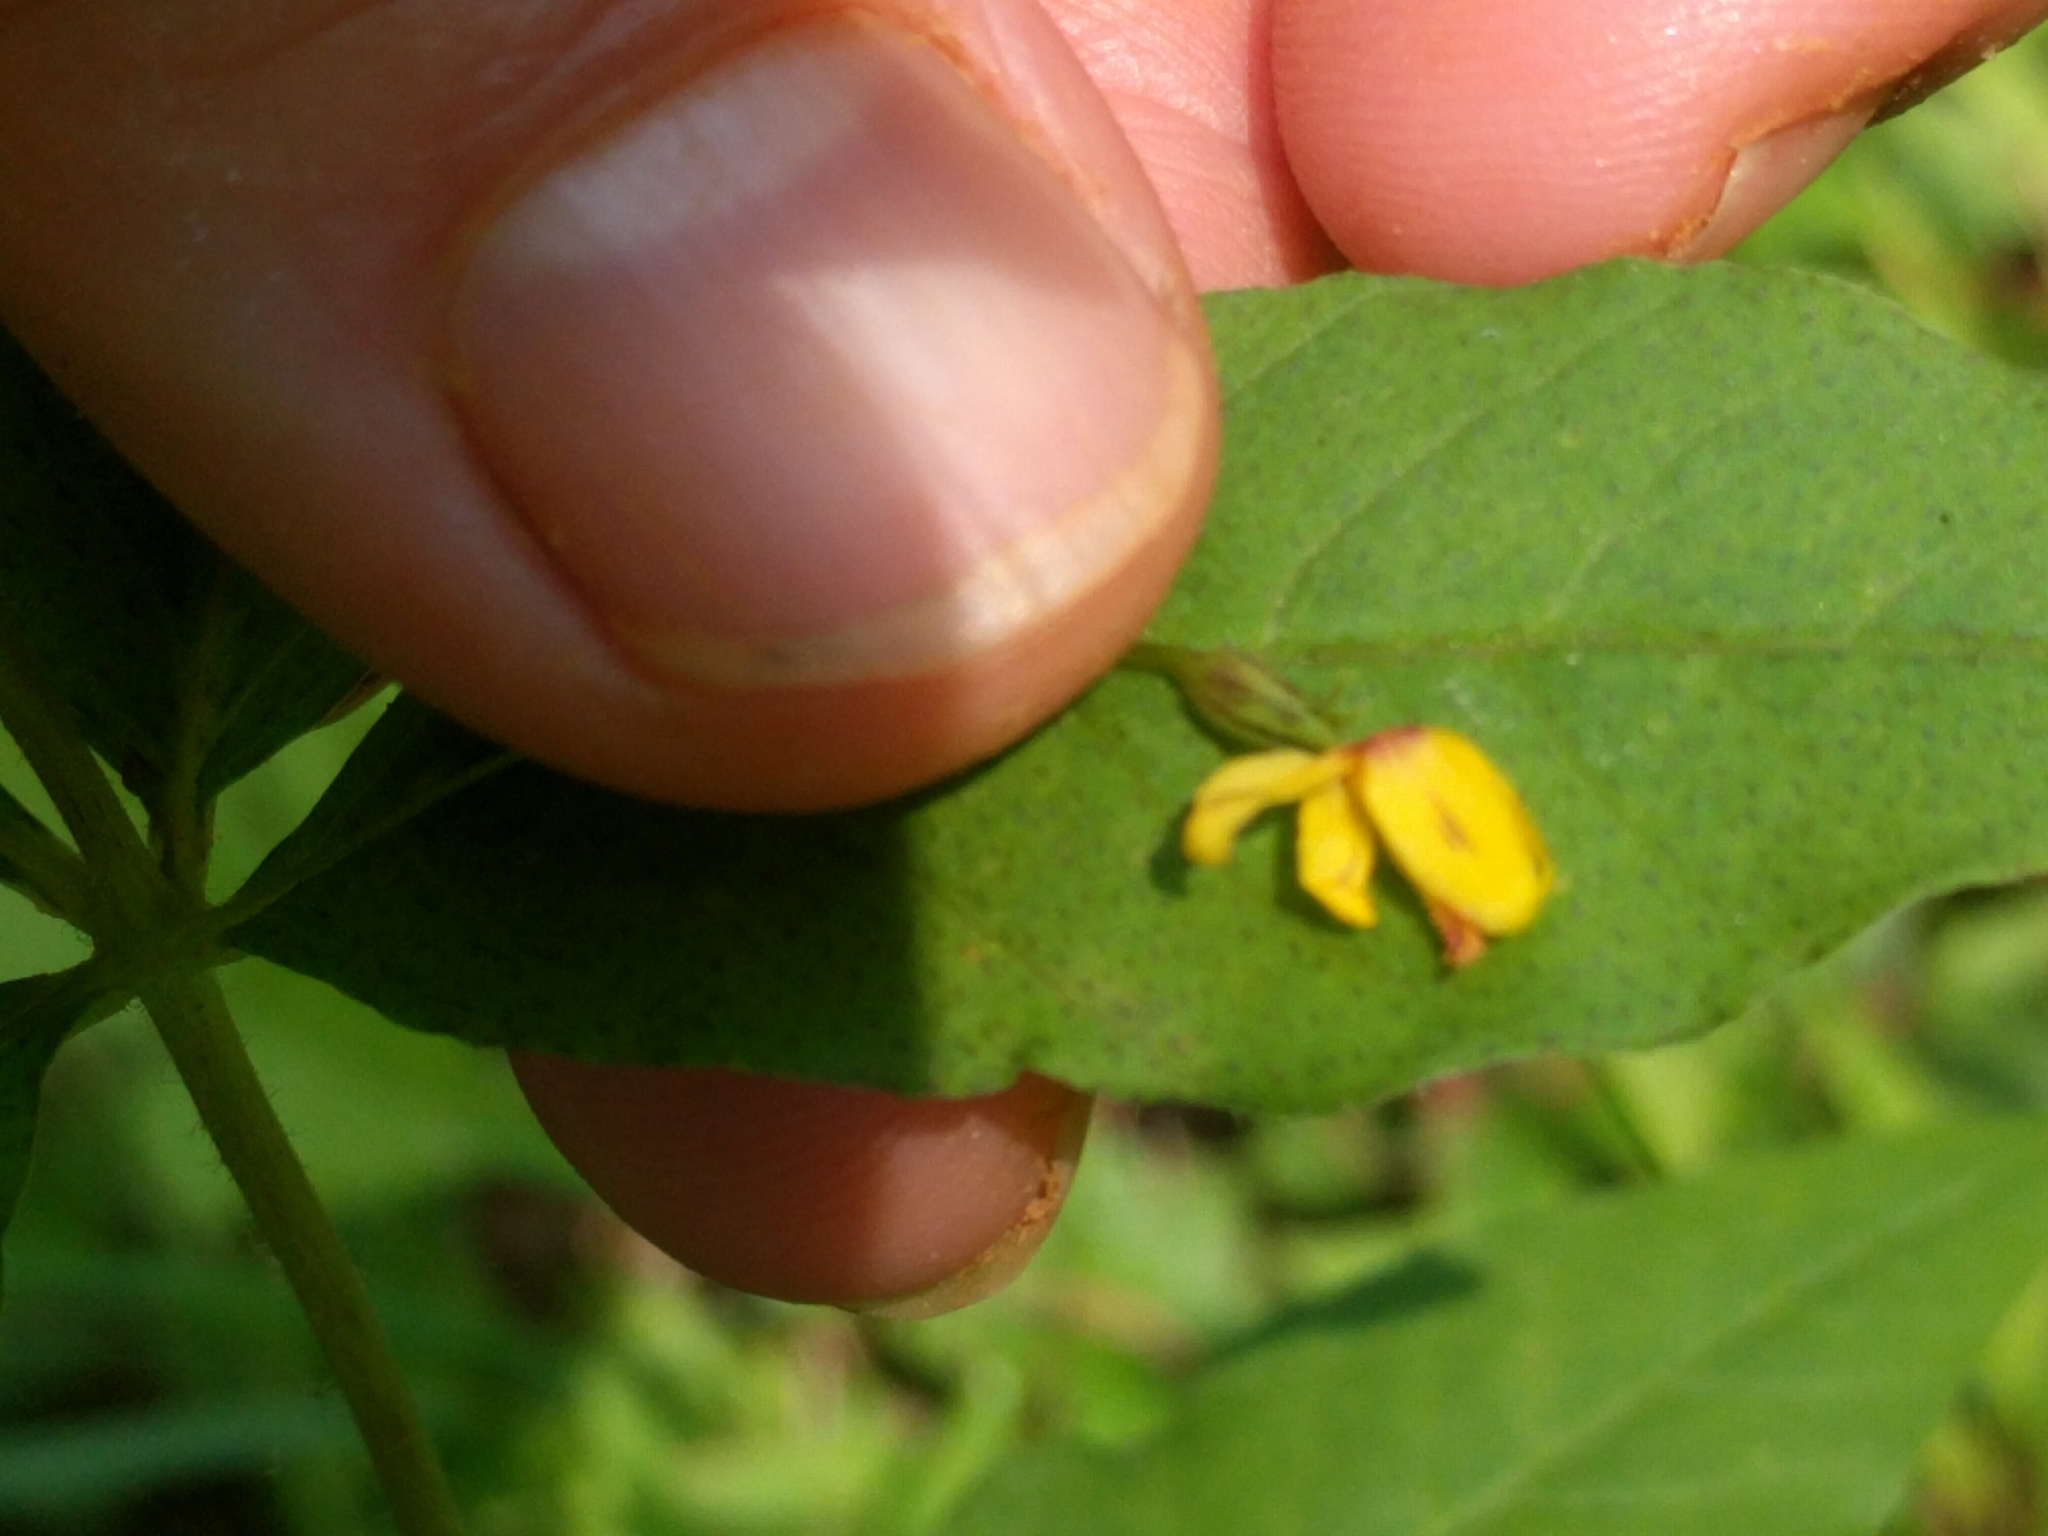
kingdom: Plantae
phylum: Tracheophyta
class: Magnoliopsida
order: Ericales
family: Primulaceae
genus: Lysimachia
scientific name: Lysimachia quadrifolia
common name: Whorled loosestrife
